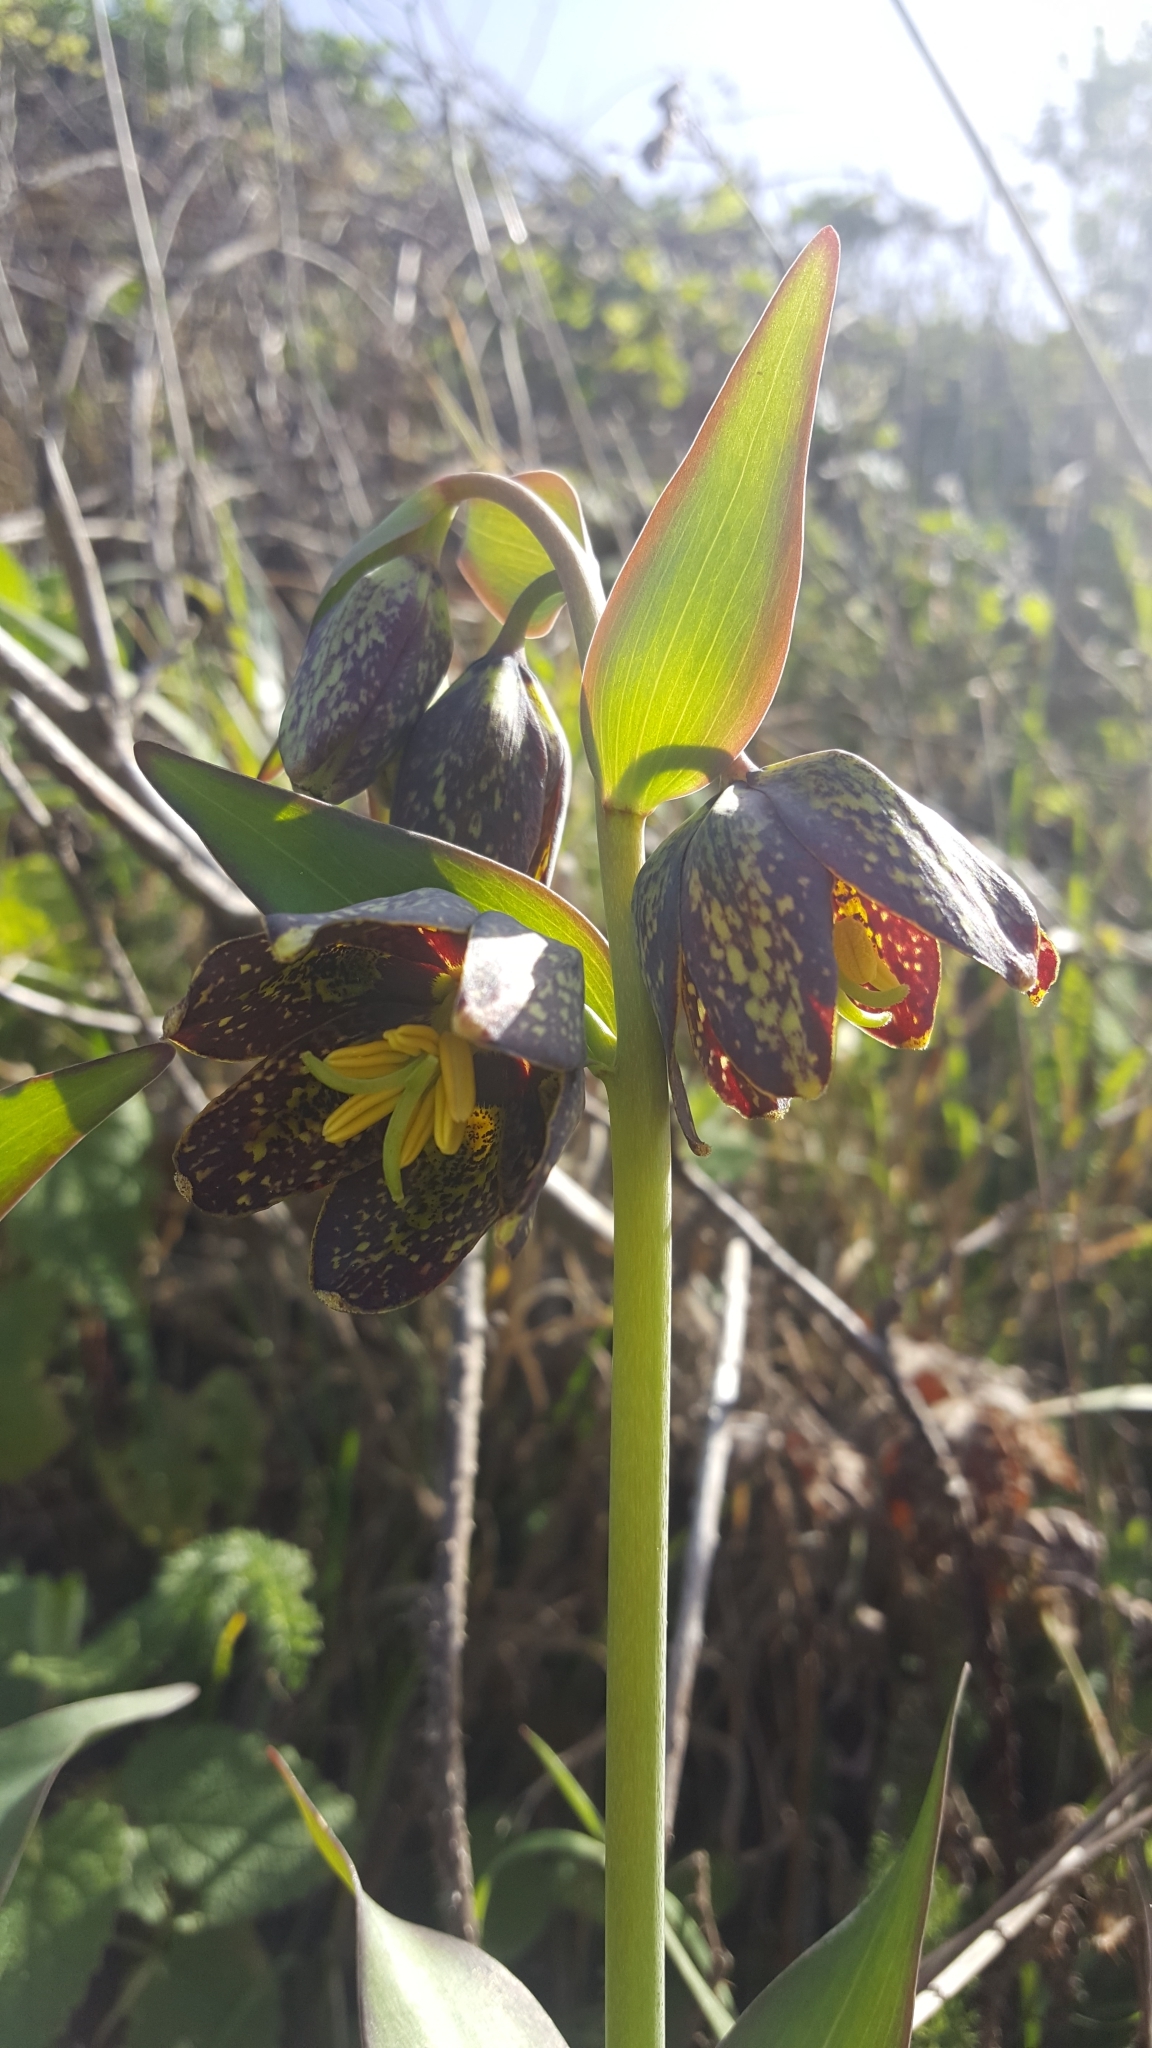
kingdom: Plantae
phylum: Tracheophyta
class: Liliopsida
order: Liliales
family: Liliaceae
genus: Fritillaria
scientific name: Fritillaria affinis
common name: Ojai fritillary
